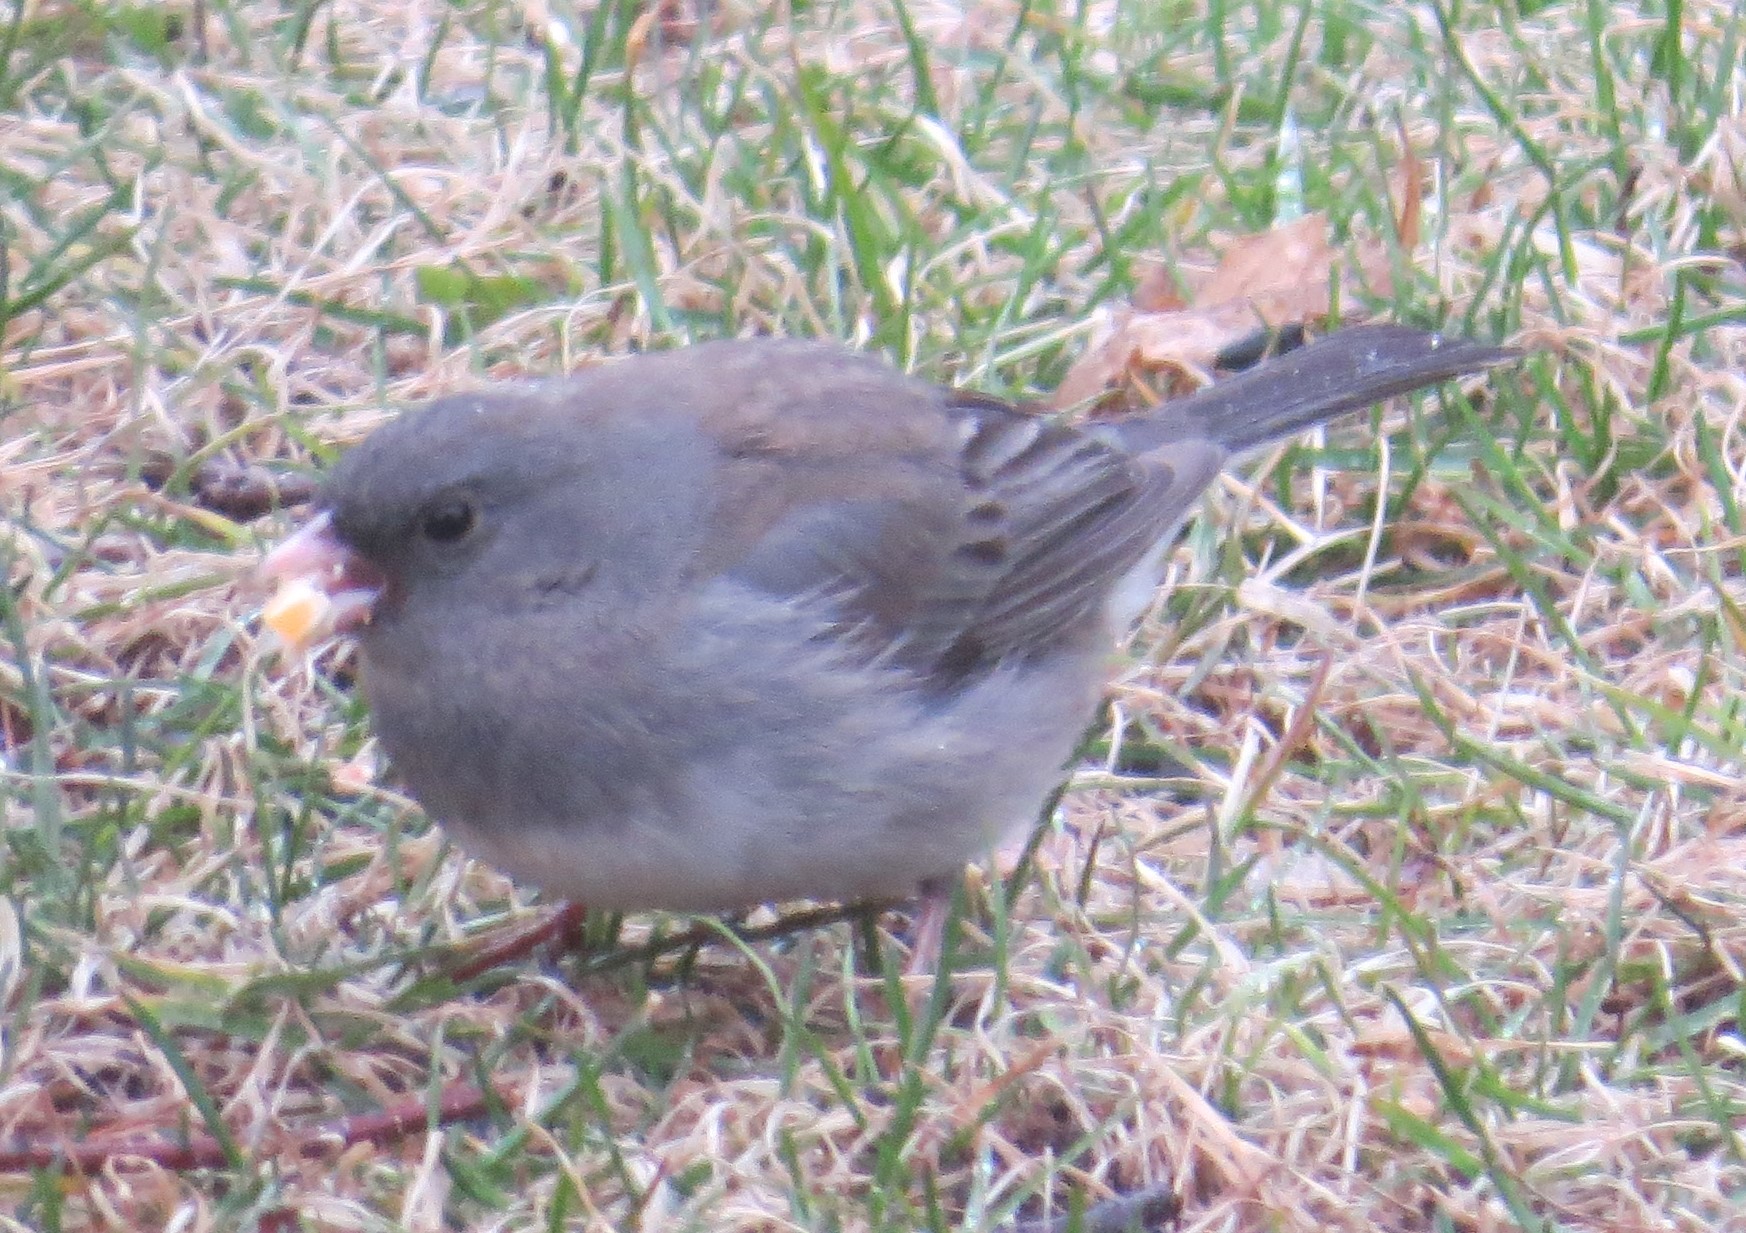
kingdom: Animalia
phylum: Chordata
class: Aves
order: Passeriformes
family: Passerellidae
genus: Junco
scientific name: Junco hyemalis
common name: Dark-eyed junco
